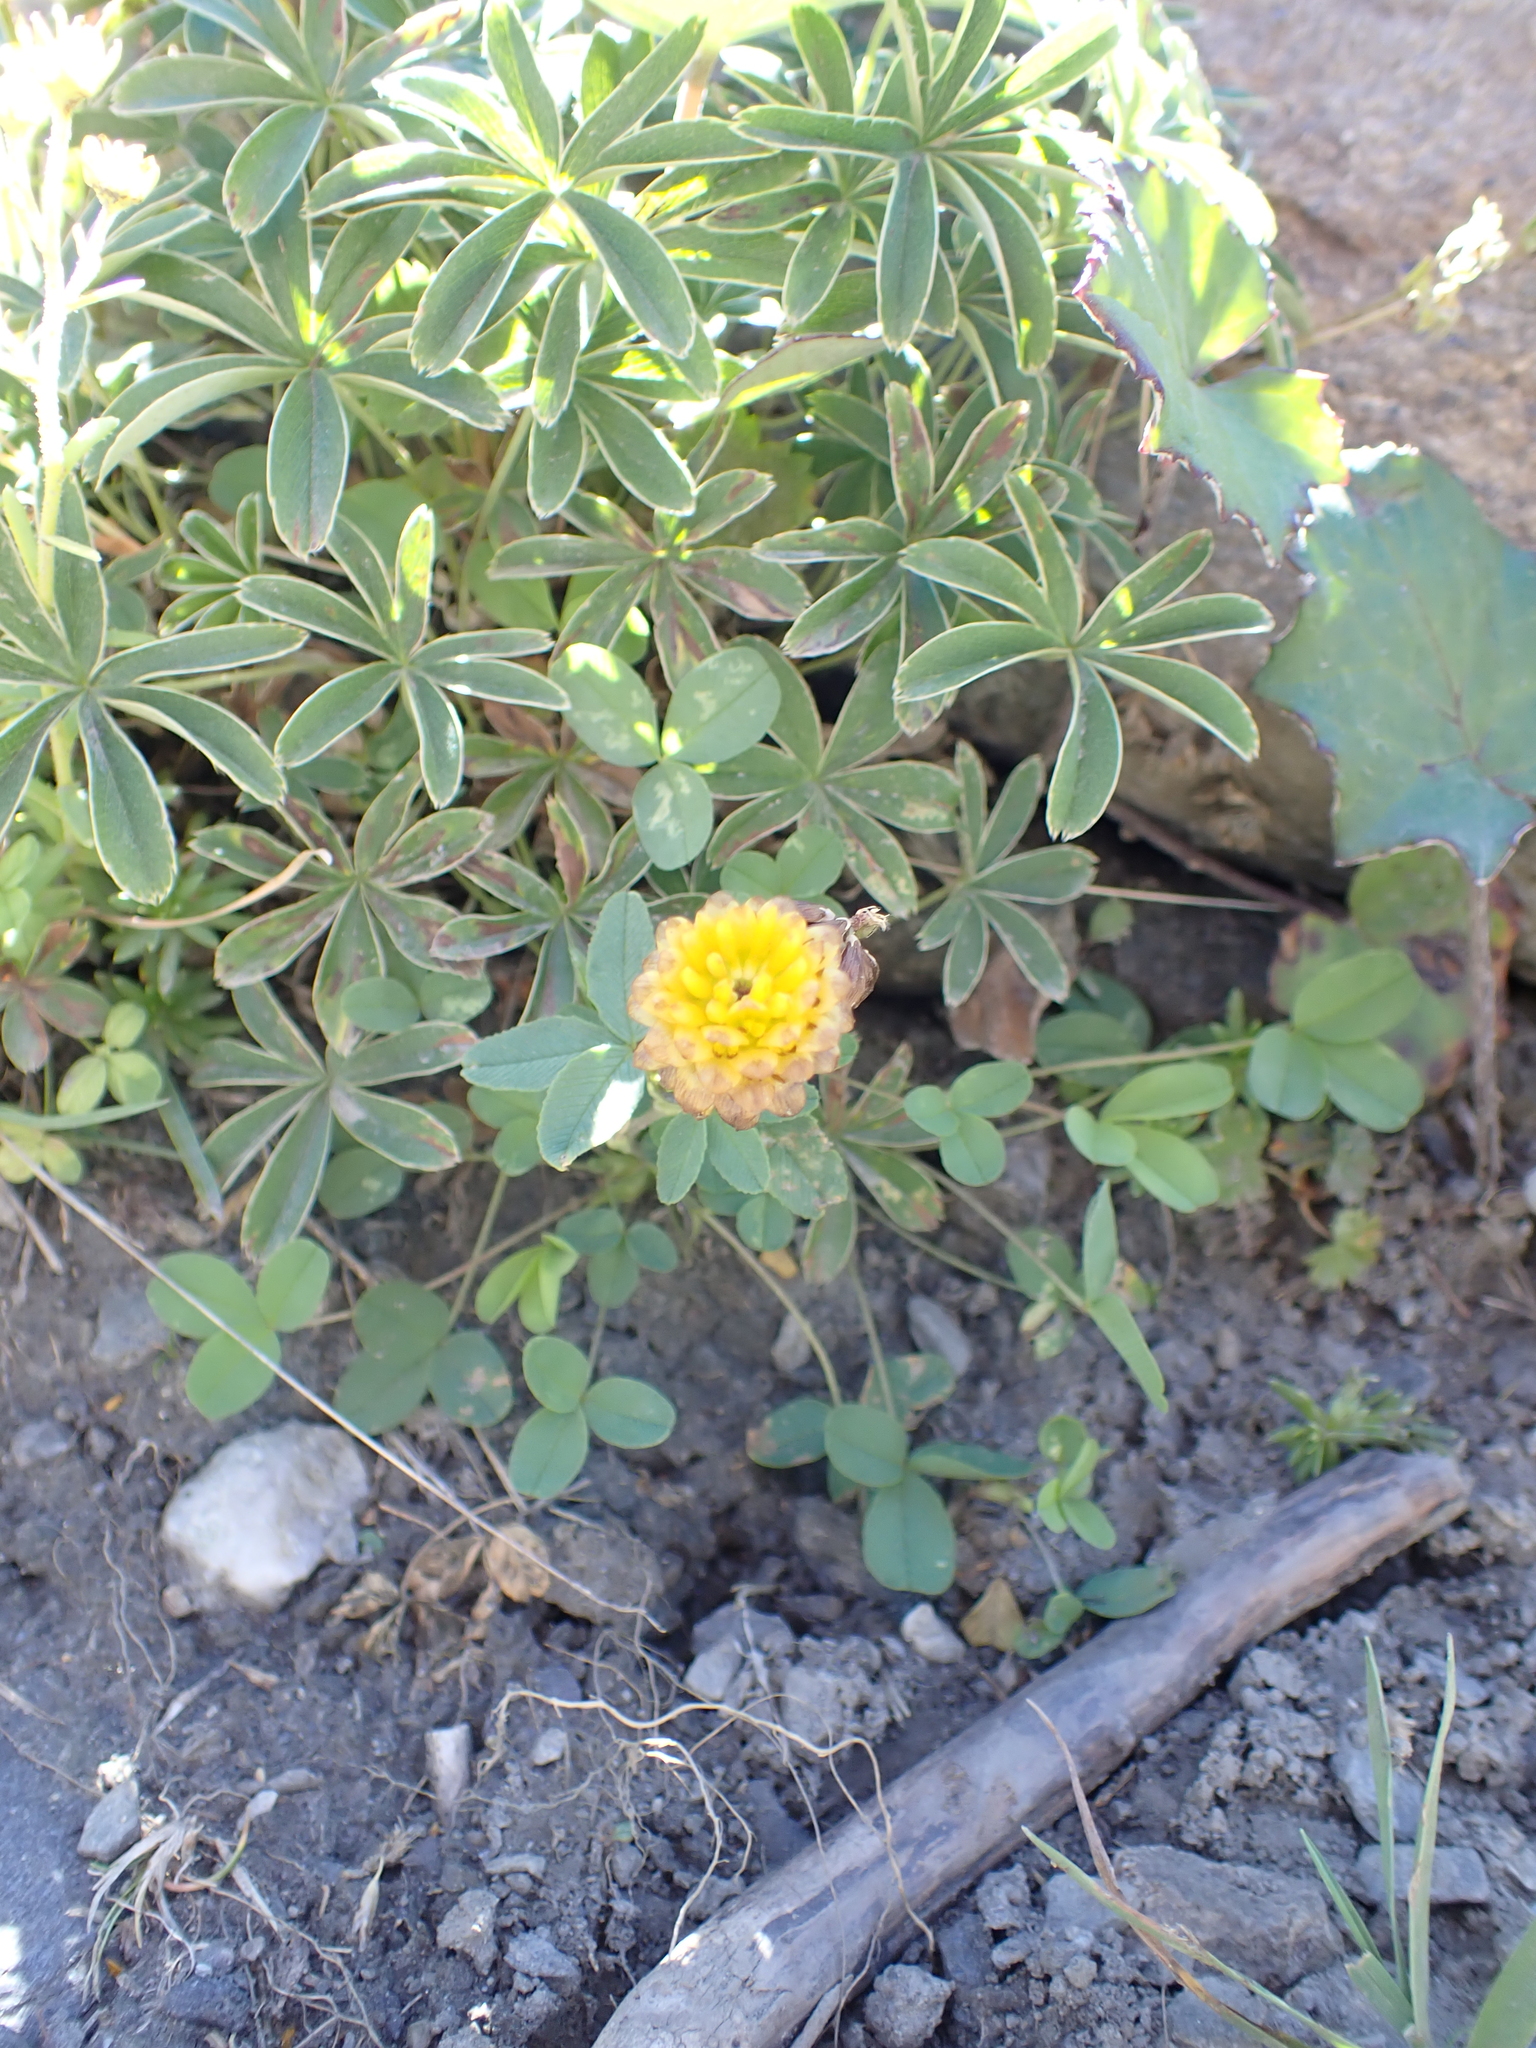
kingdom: Plantae
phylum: Tracheophyta
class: Magnoliopsida
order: Fabales
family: Fabaceae
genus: Trifolium
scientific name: Trifolium badium
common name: Brown clover
